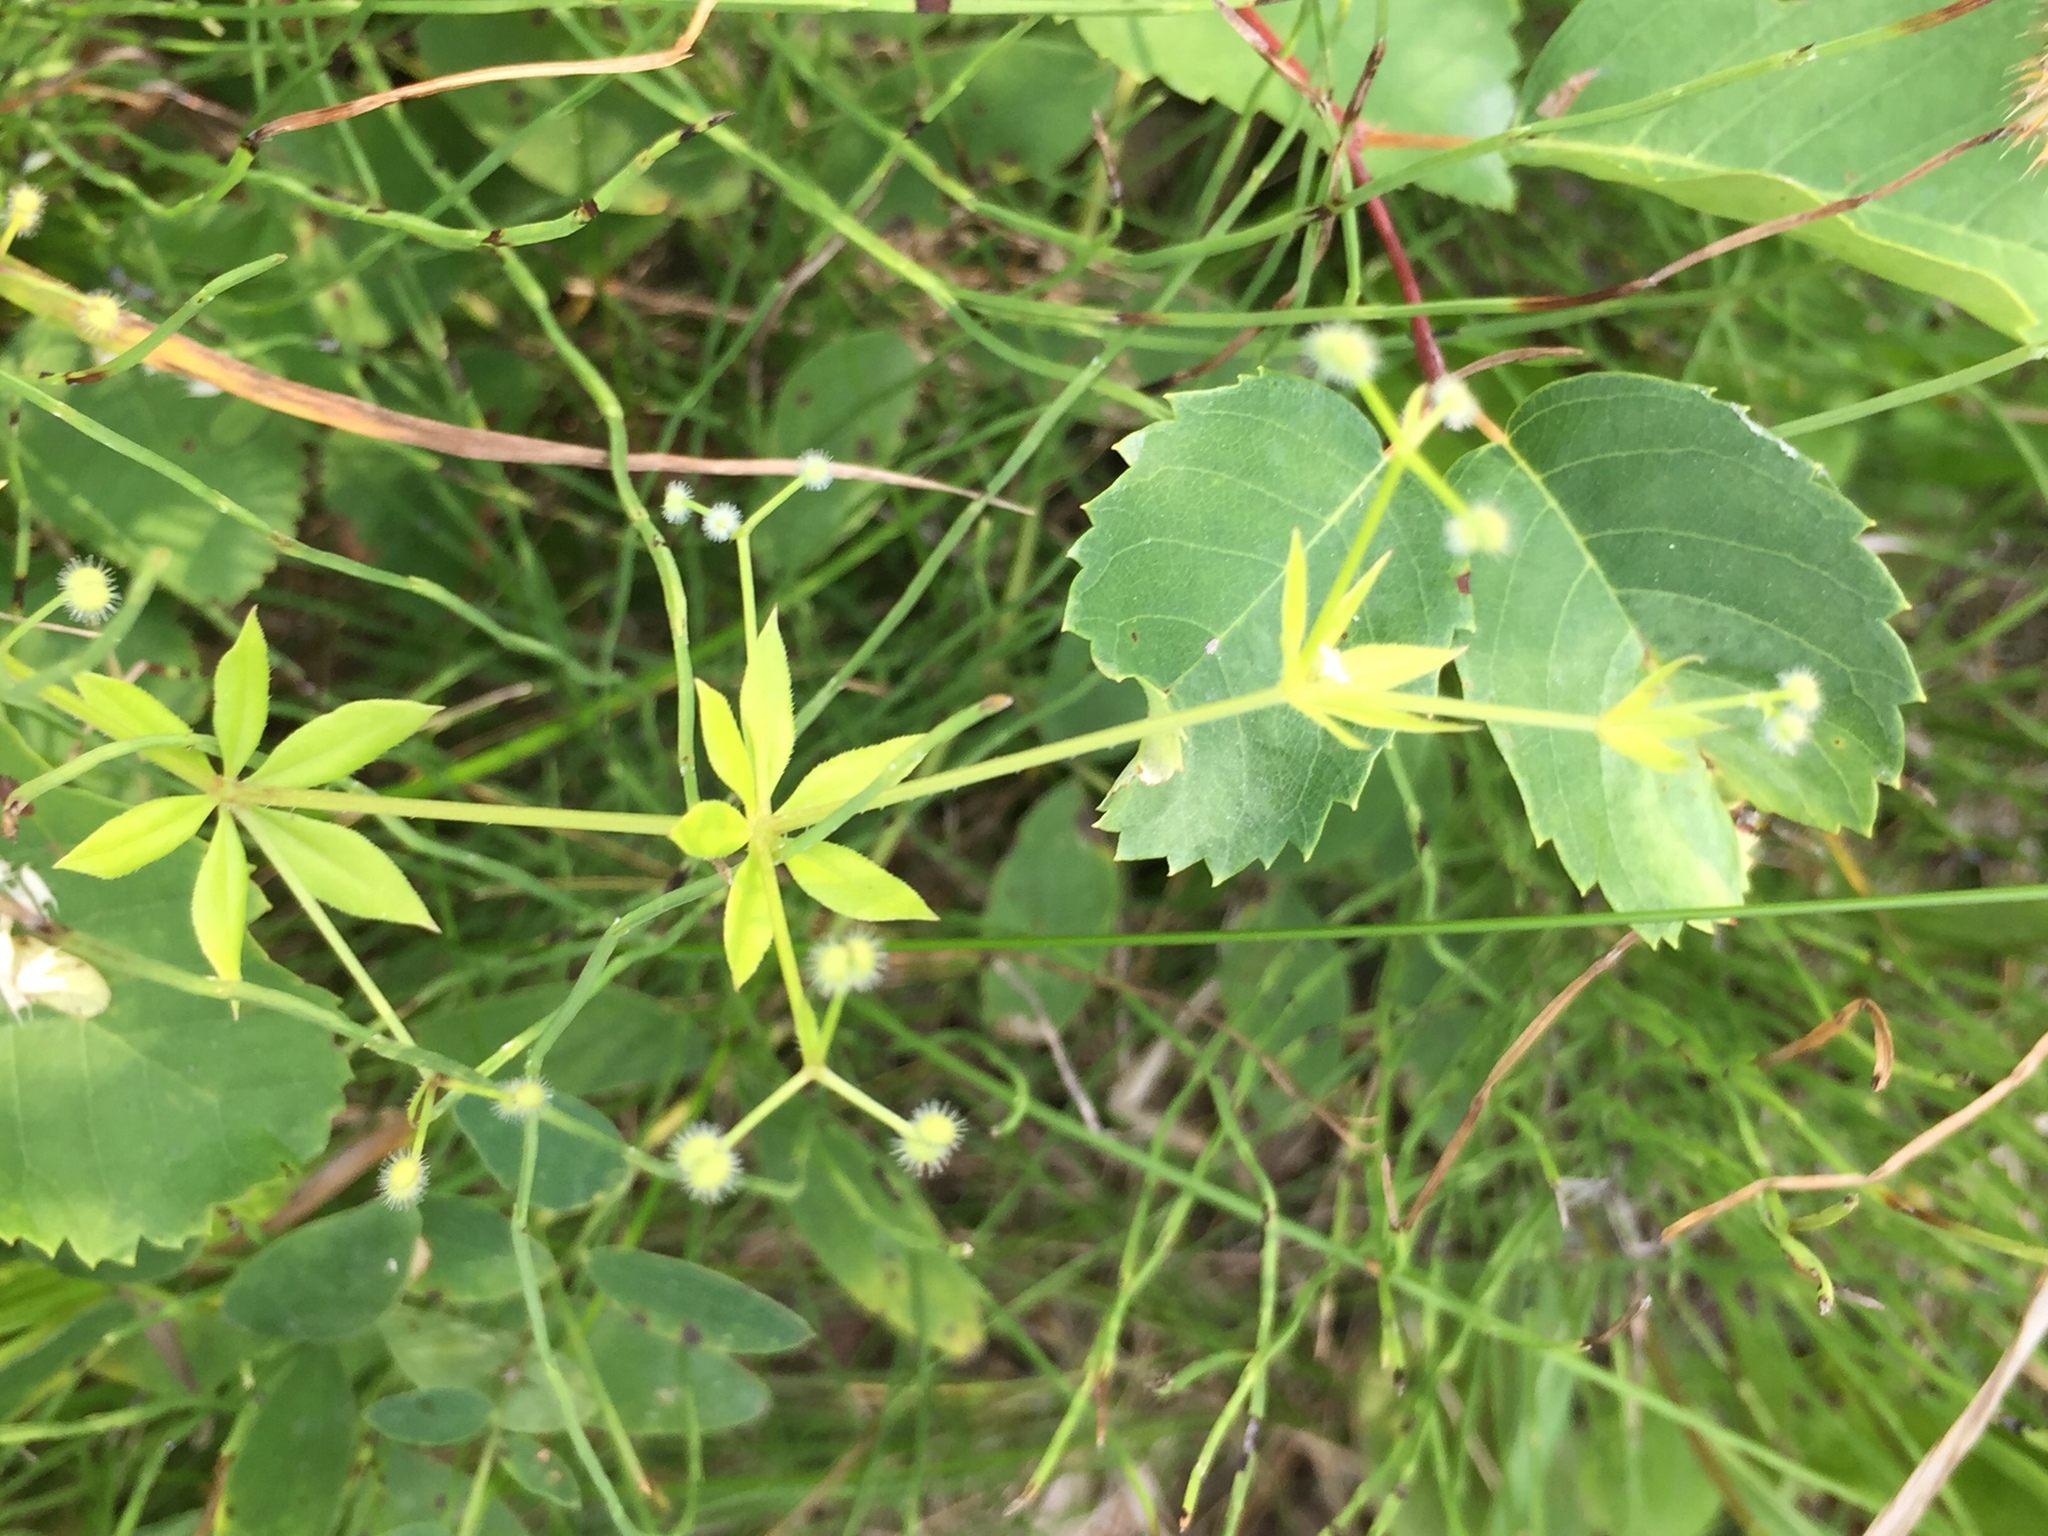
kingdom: Plantae
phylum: Tracheophyta
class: Magnoliopsida
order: Gentianales
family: Rubiaceae
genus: Galium
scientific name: Galium triflorum
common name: Fragrant bedstraw
